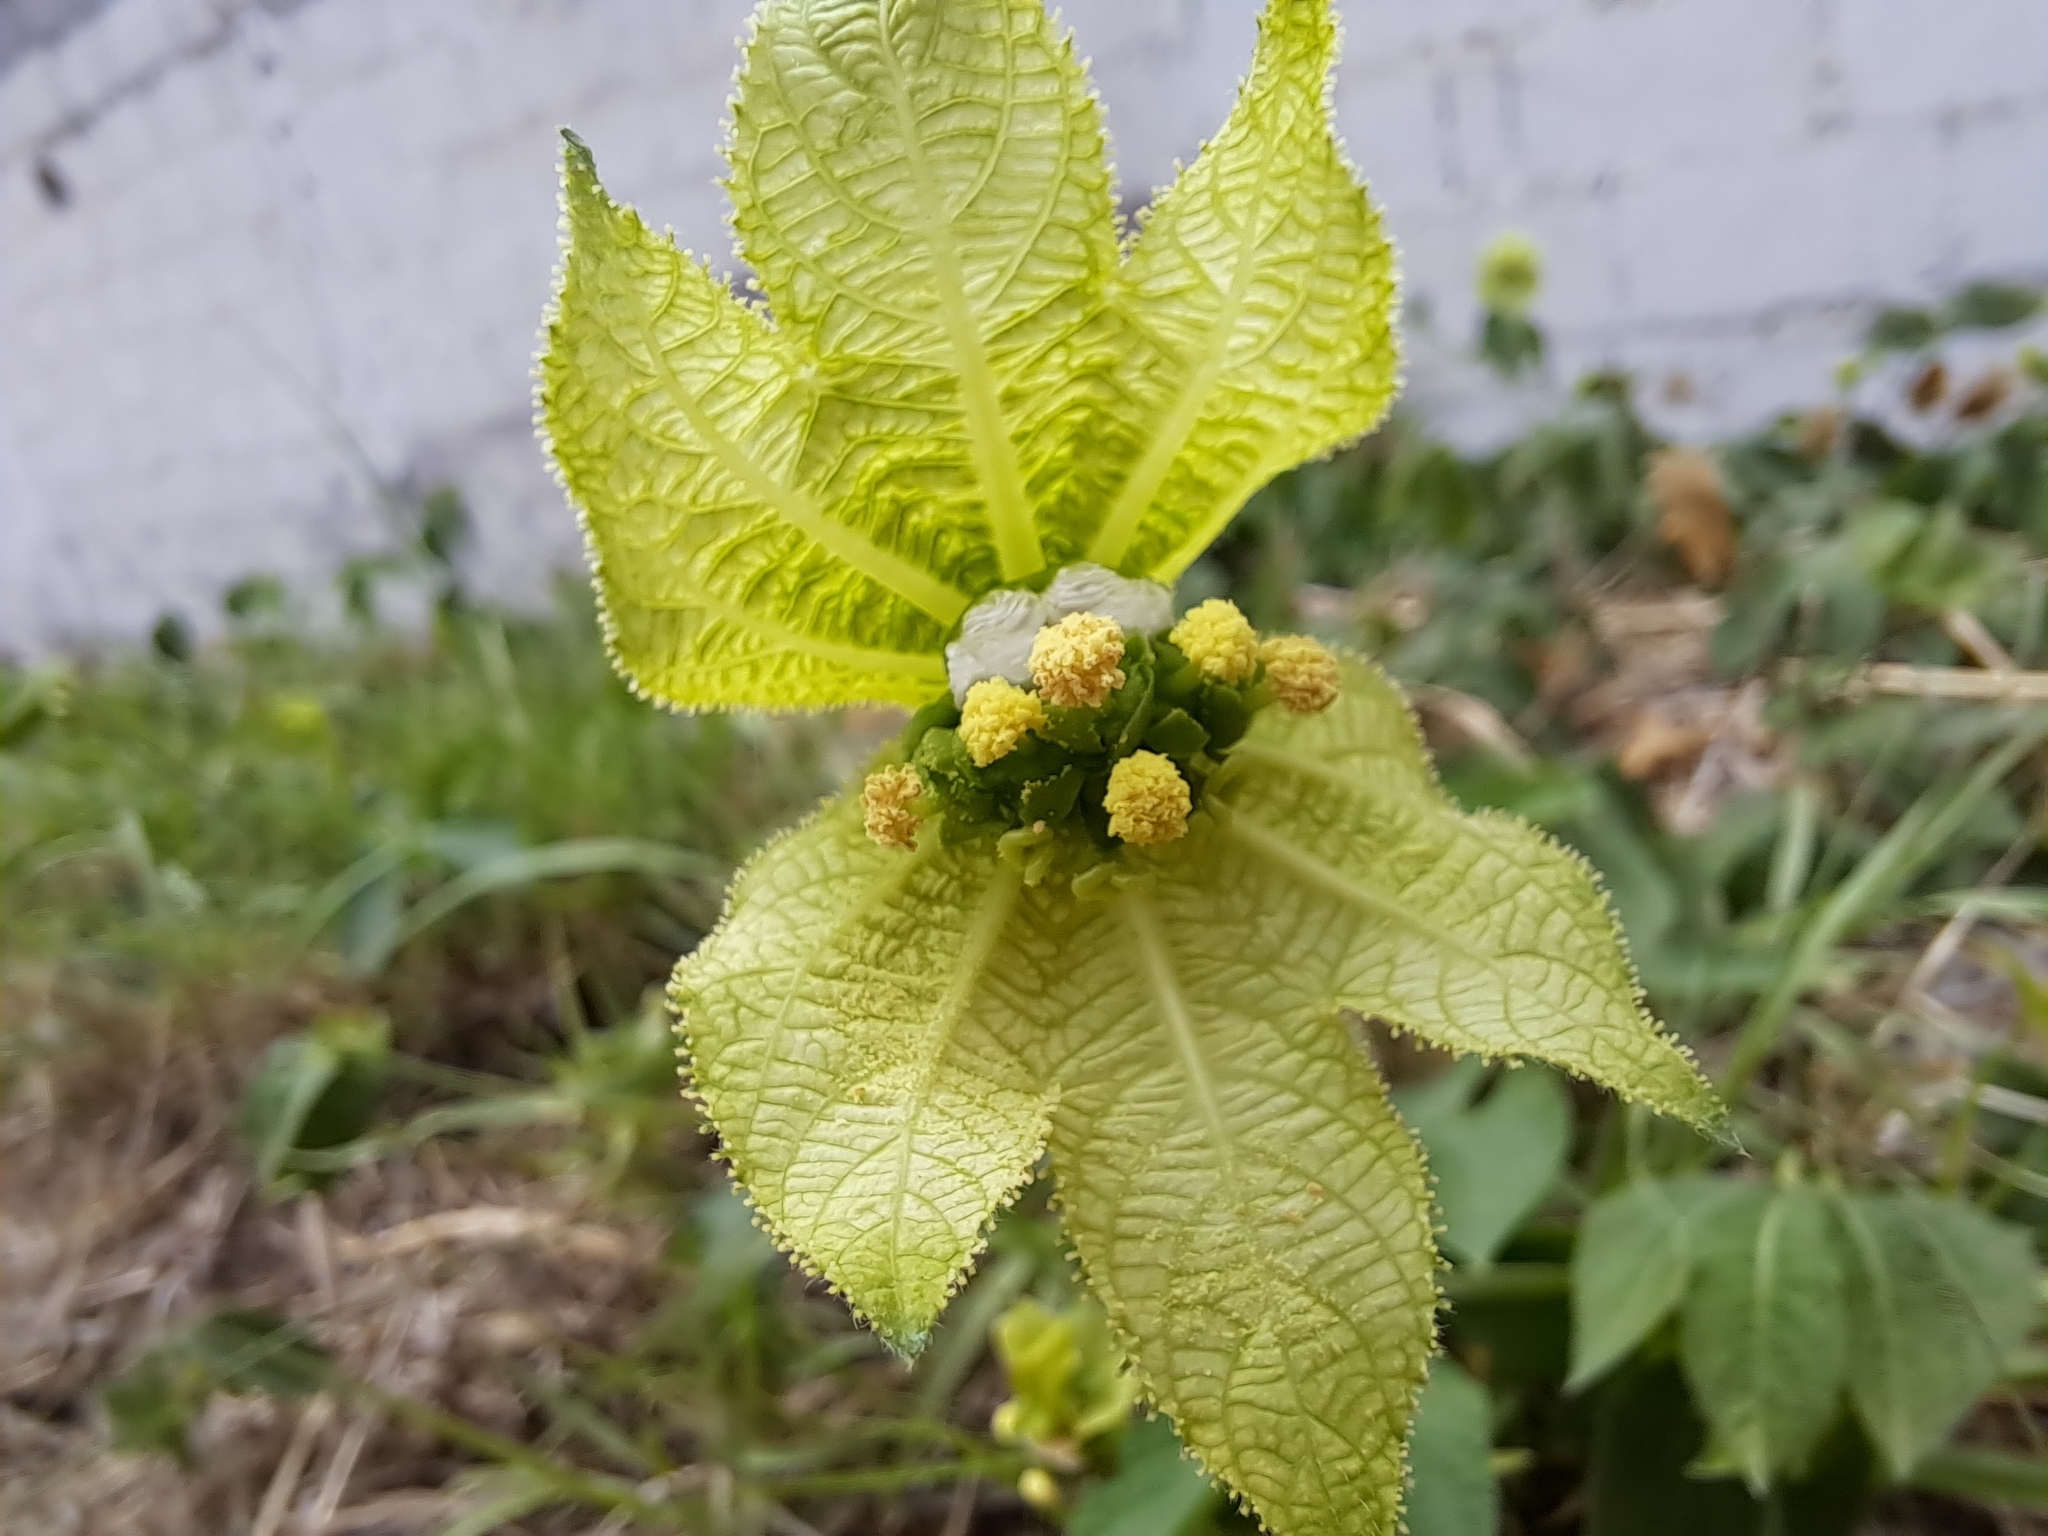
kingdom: Plantae
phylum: Tracheophyta
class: Magnoliopsida
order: Malpighiales
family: Euphorbiaceae
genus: Dalechampia
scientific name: Dalechampia scandens
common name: Spurgecreeper
